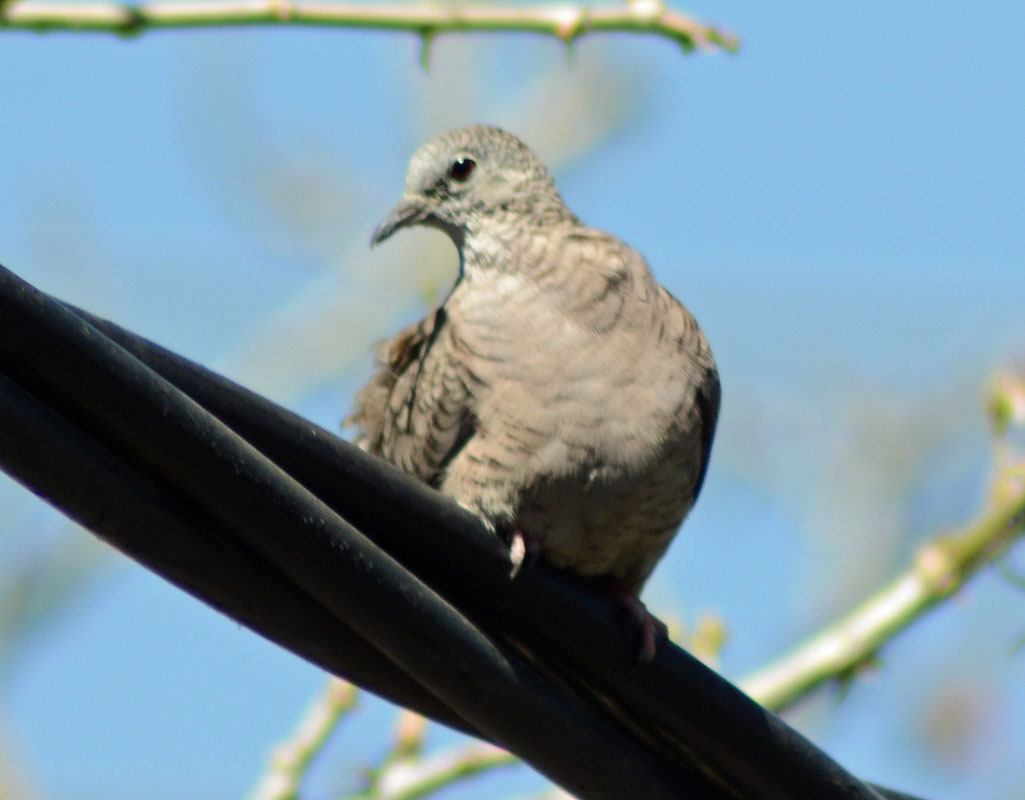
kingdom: Animalia
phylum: Chordata
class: Aves
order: Columbiformes
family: Columbidae
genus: Columbina
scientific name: Columbina inca
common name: Inca dove
